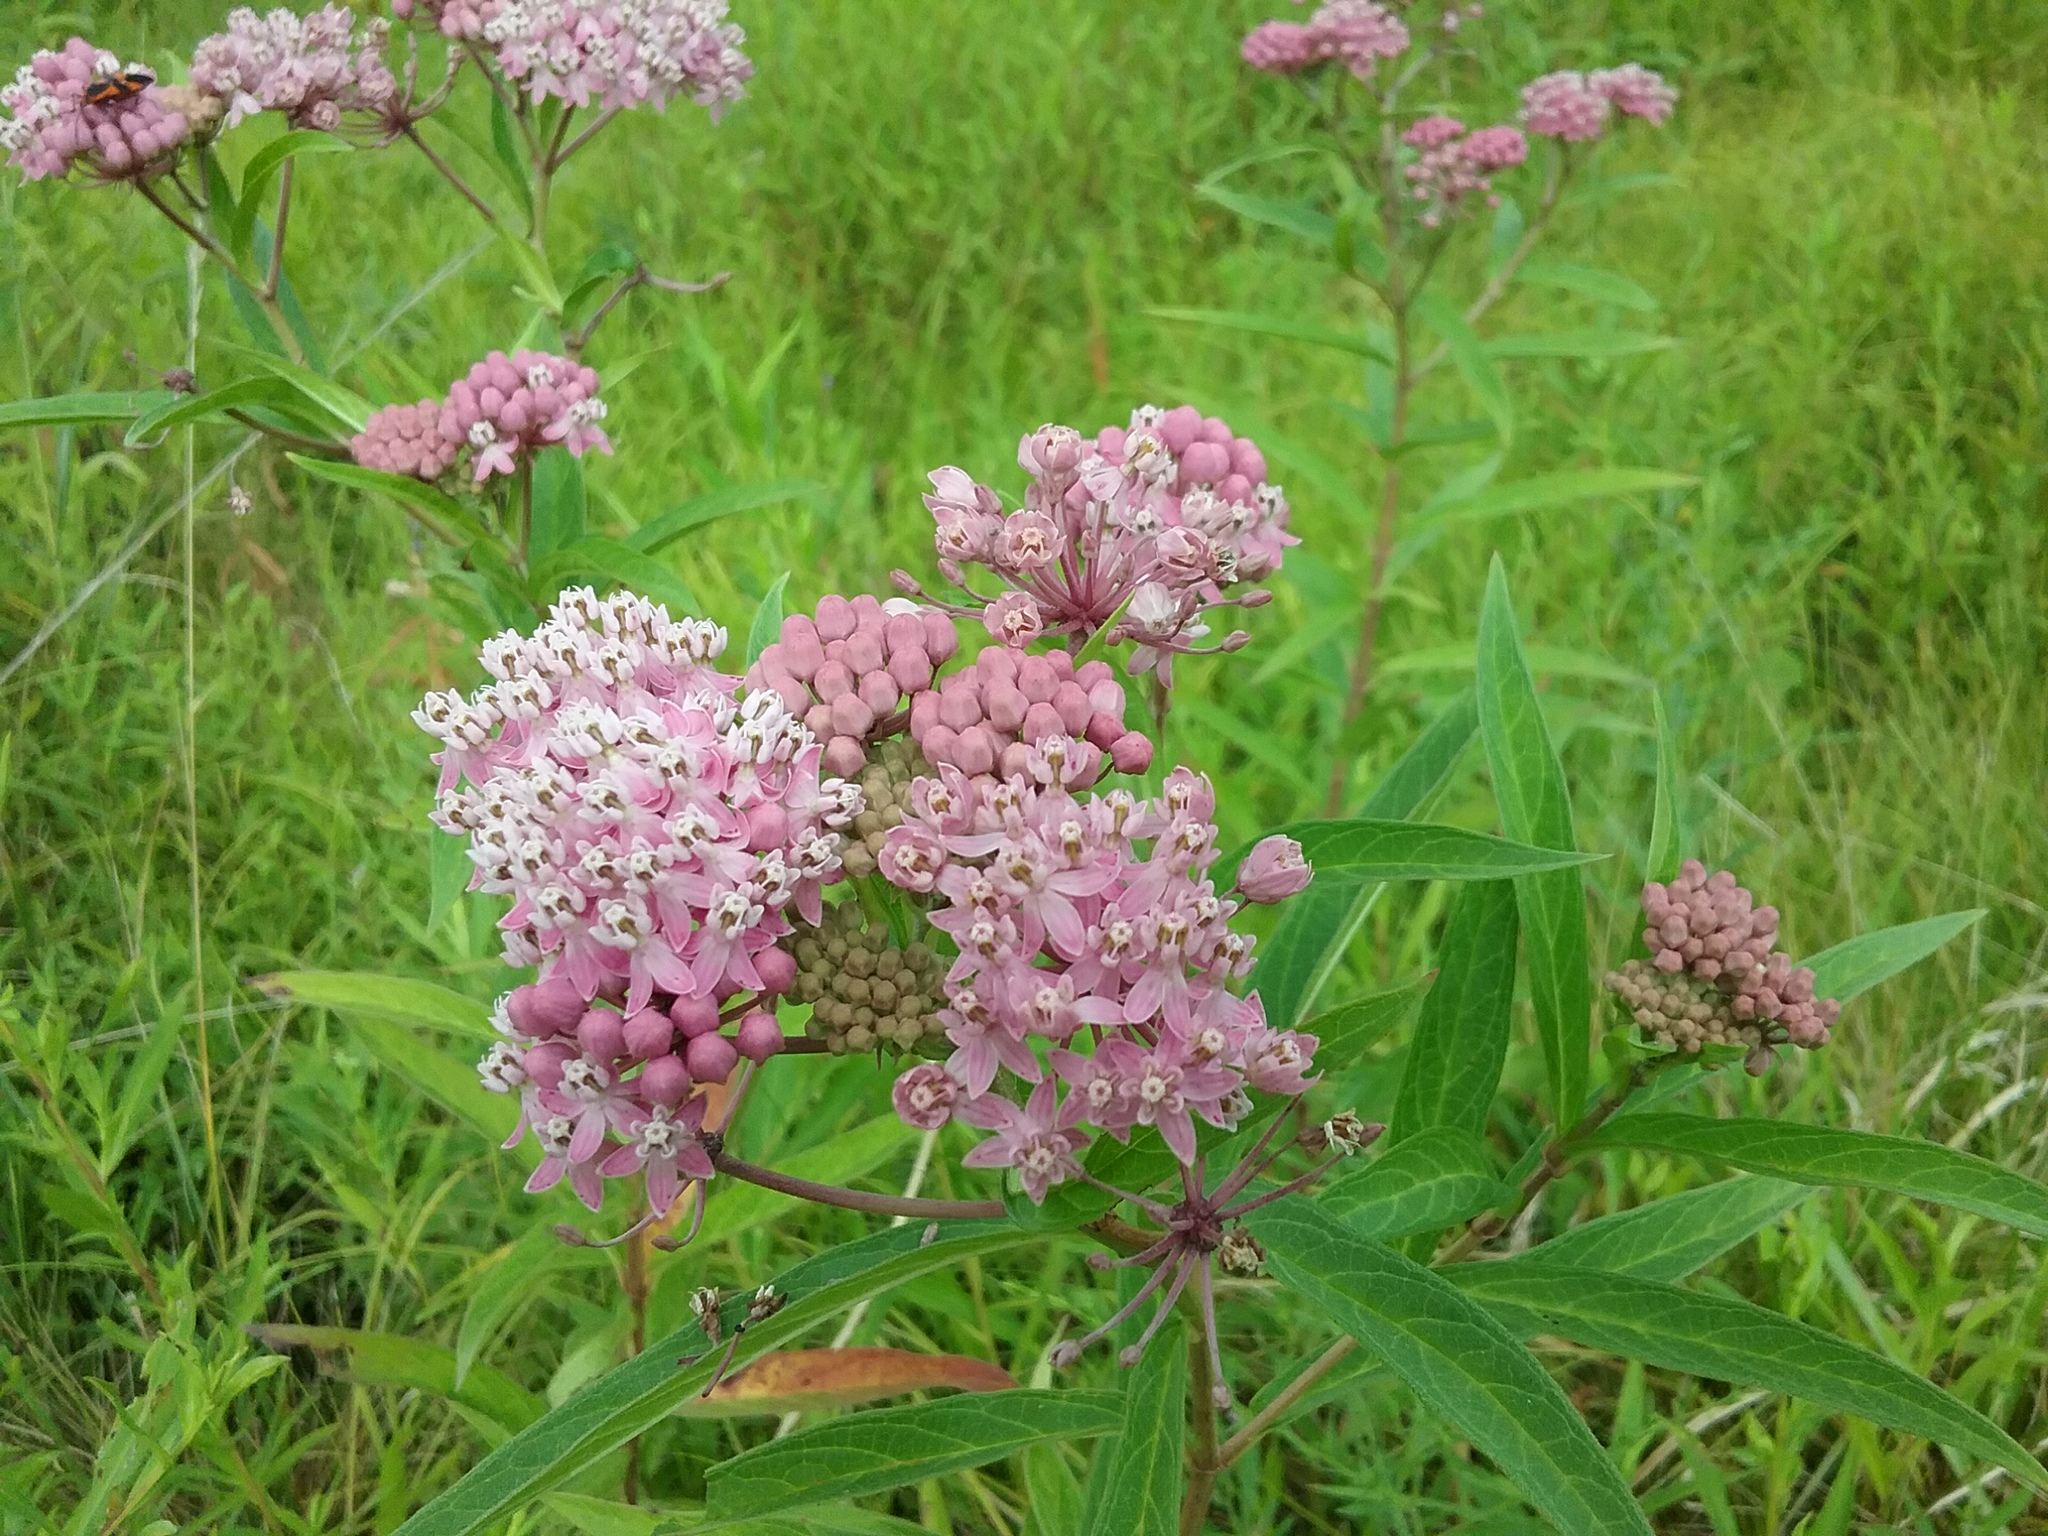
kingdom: Plantae
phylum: Tracheophyta
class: Magnoliopsida
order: Gentianales
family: Apocynaceae
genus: Asclepias
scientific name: Asclepias incarnata
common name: Swamp milkweed
